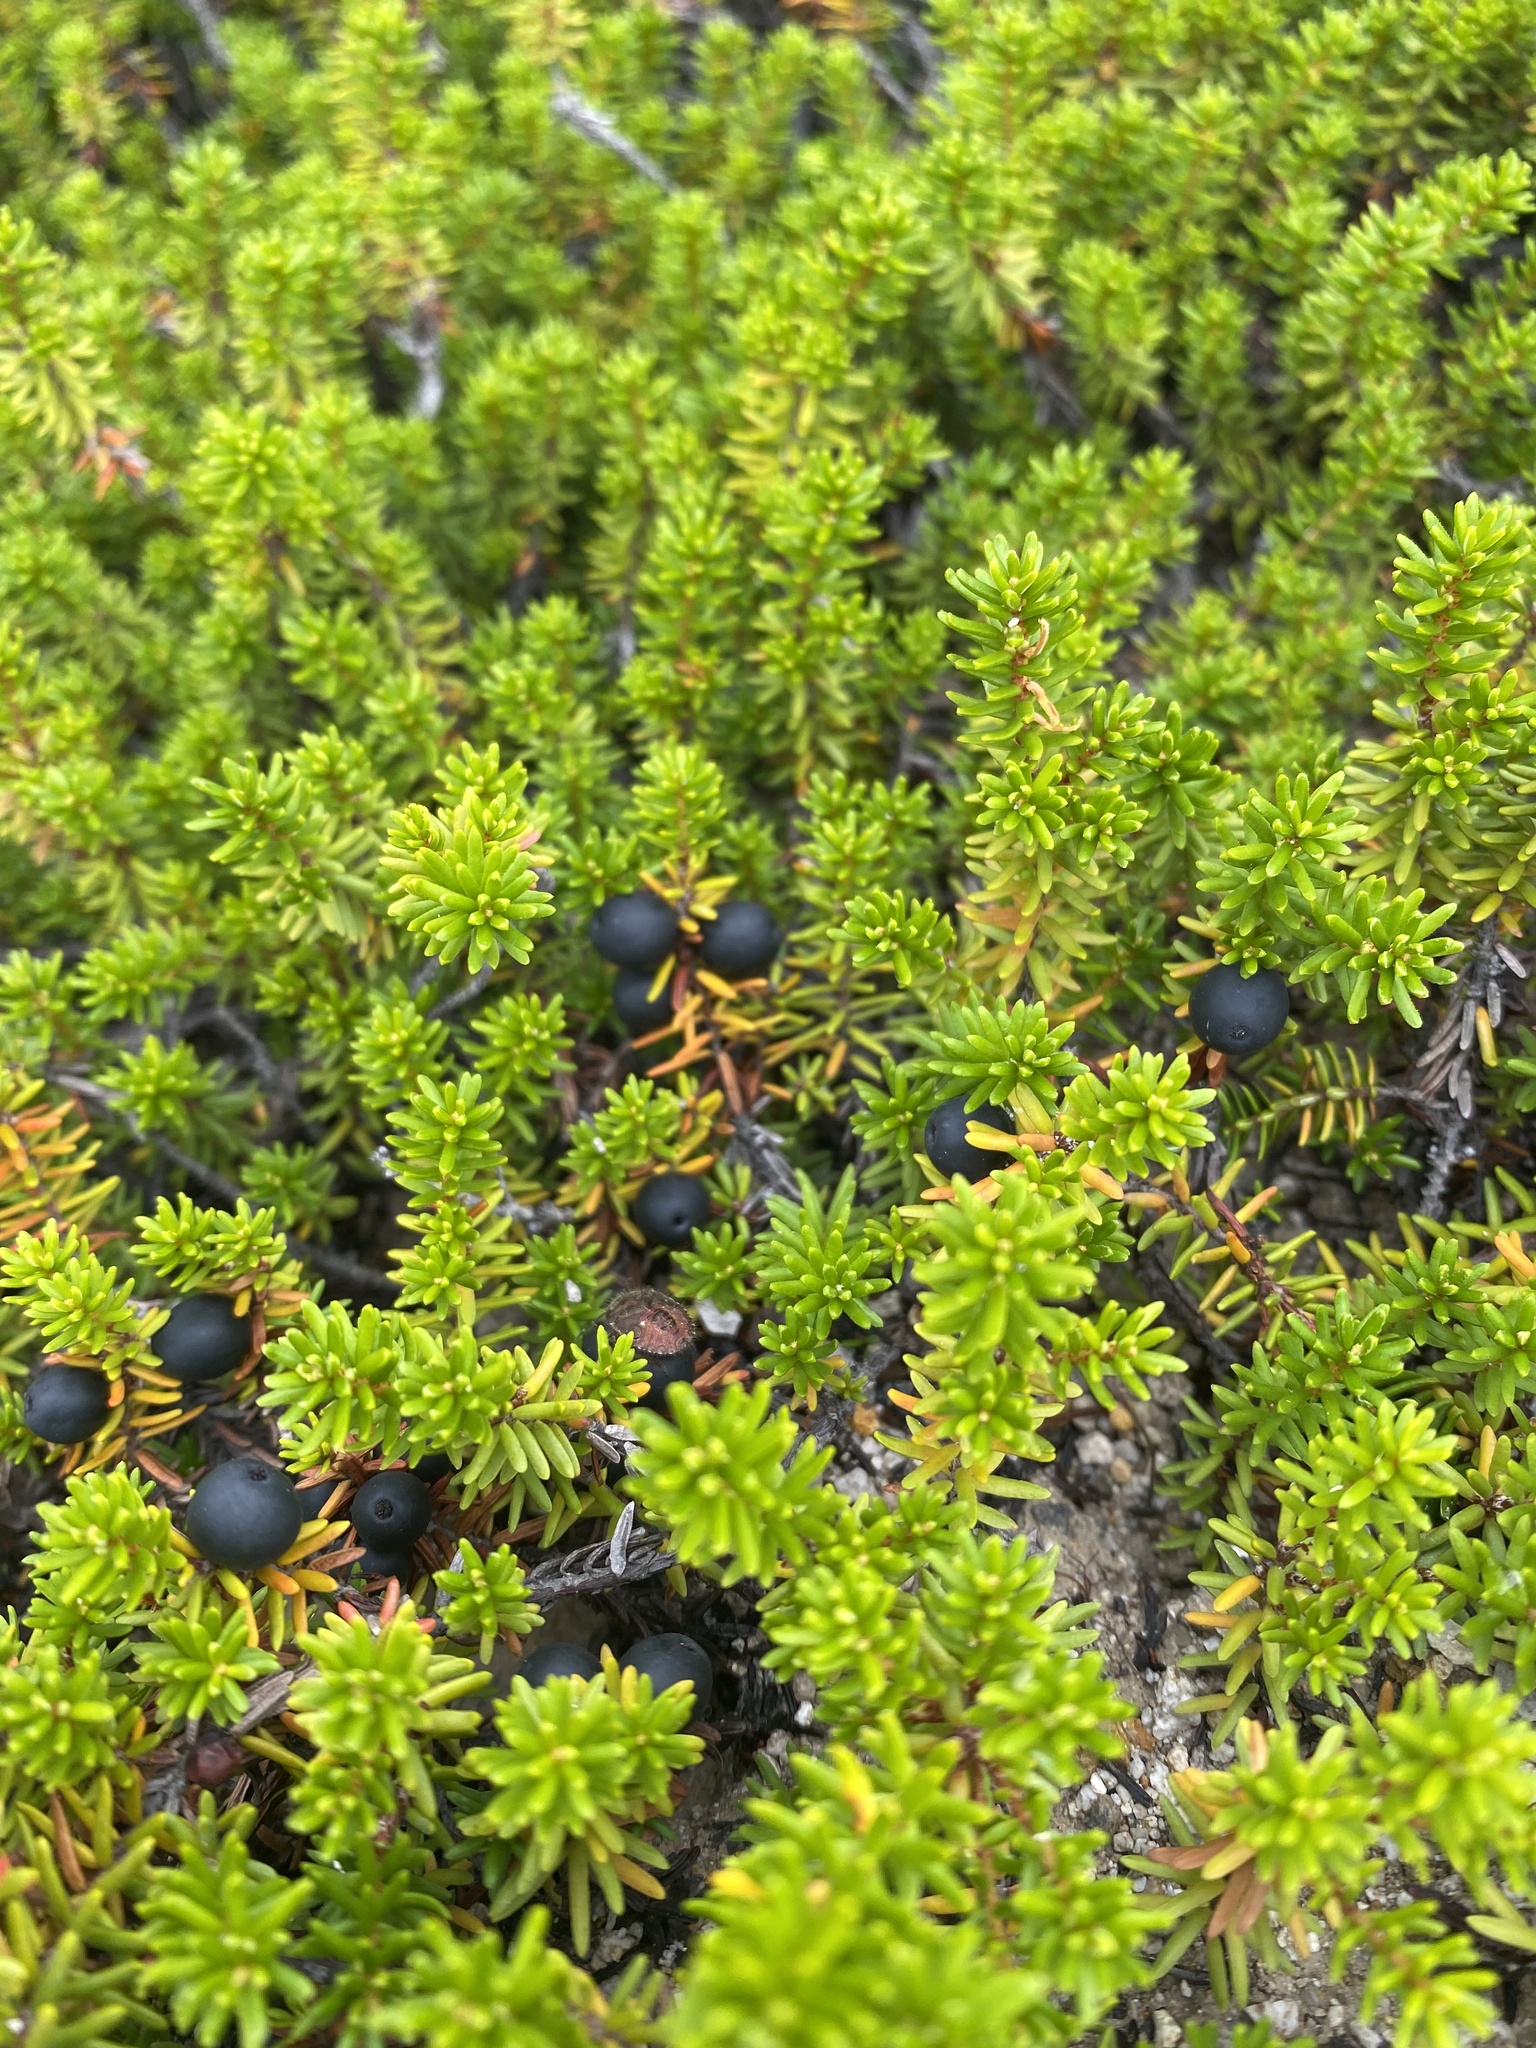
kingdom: Plantae
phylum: Tracheophyta
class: Magnoliopsida
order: Ericales
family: Ericaceae
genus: Empetrum
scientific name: Empetrum nigrum
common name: Black crowberry
